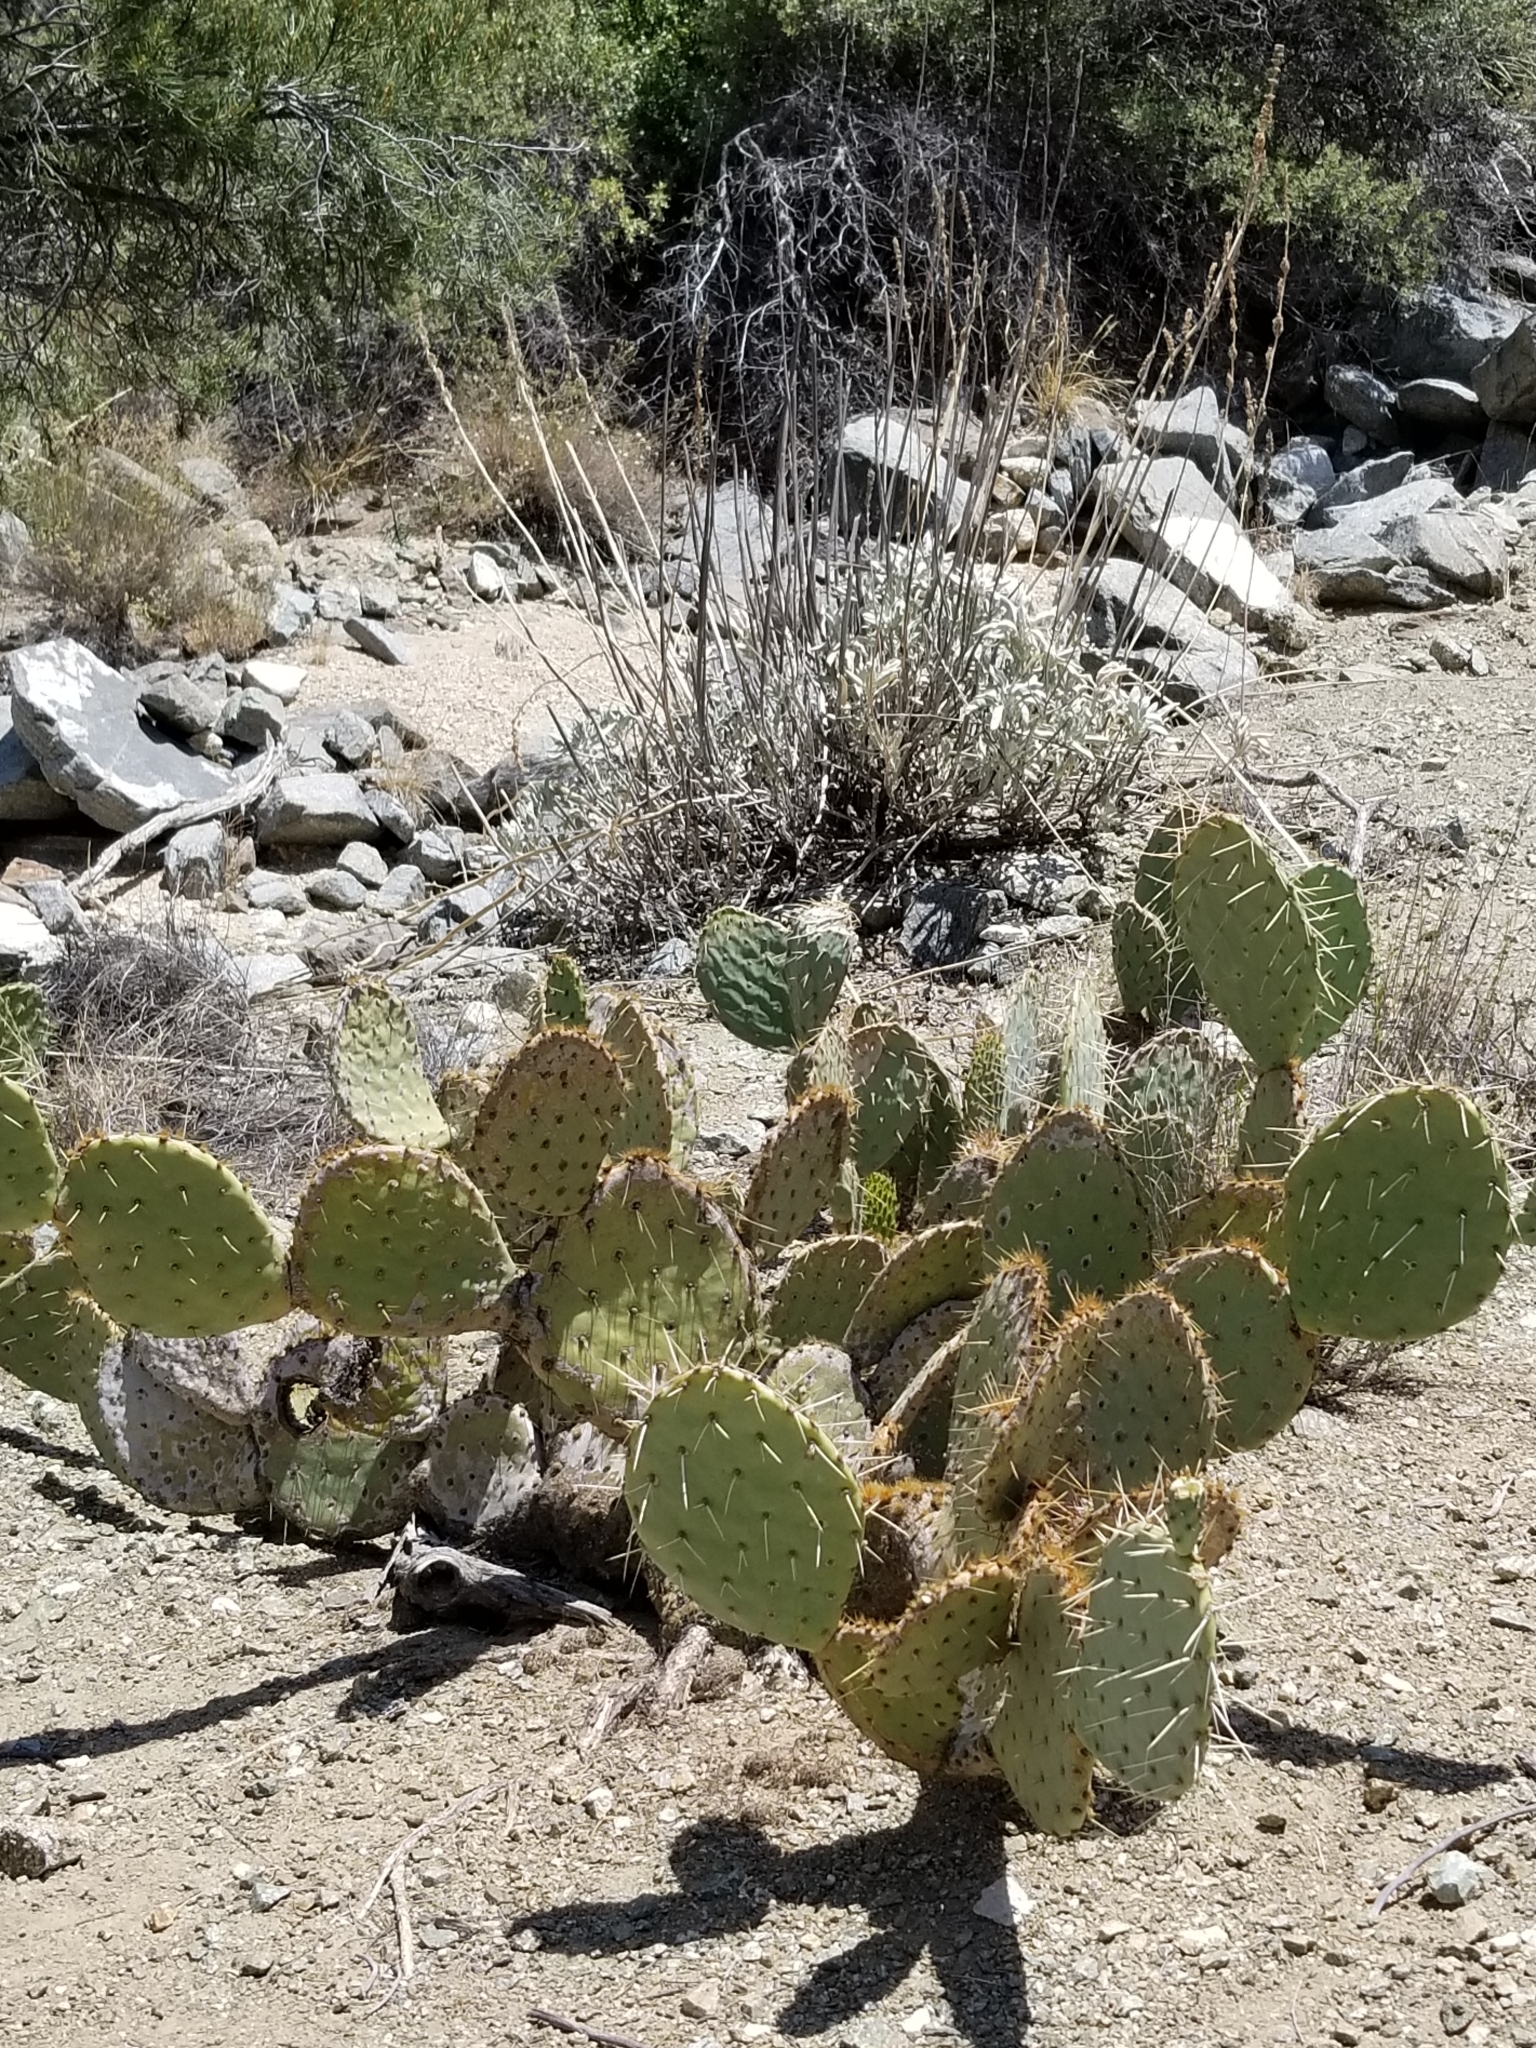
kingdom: Plantae
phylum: Tracheophyta
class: Magnoliopsida
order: Caryophyllales
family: Cactaceae
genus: Opuntia
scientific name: Opuntia phaeacantha
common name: New mexico prickly-pear
